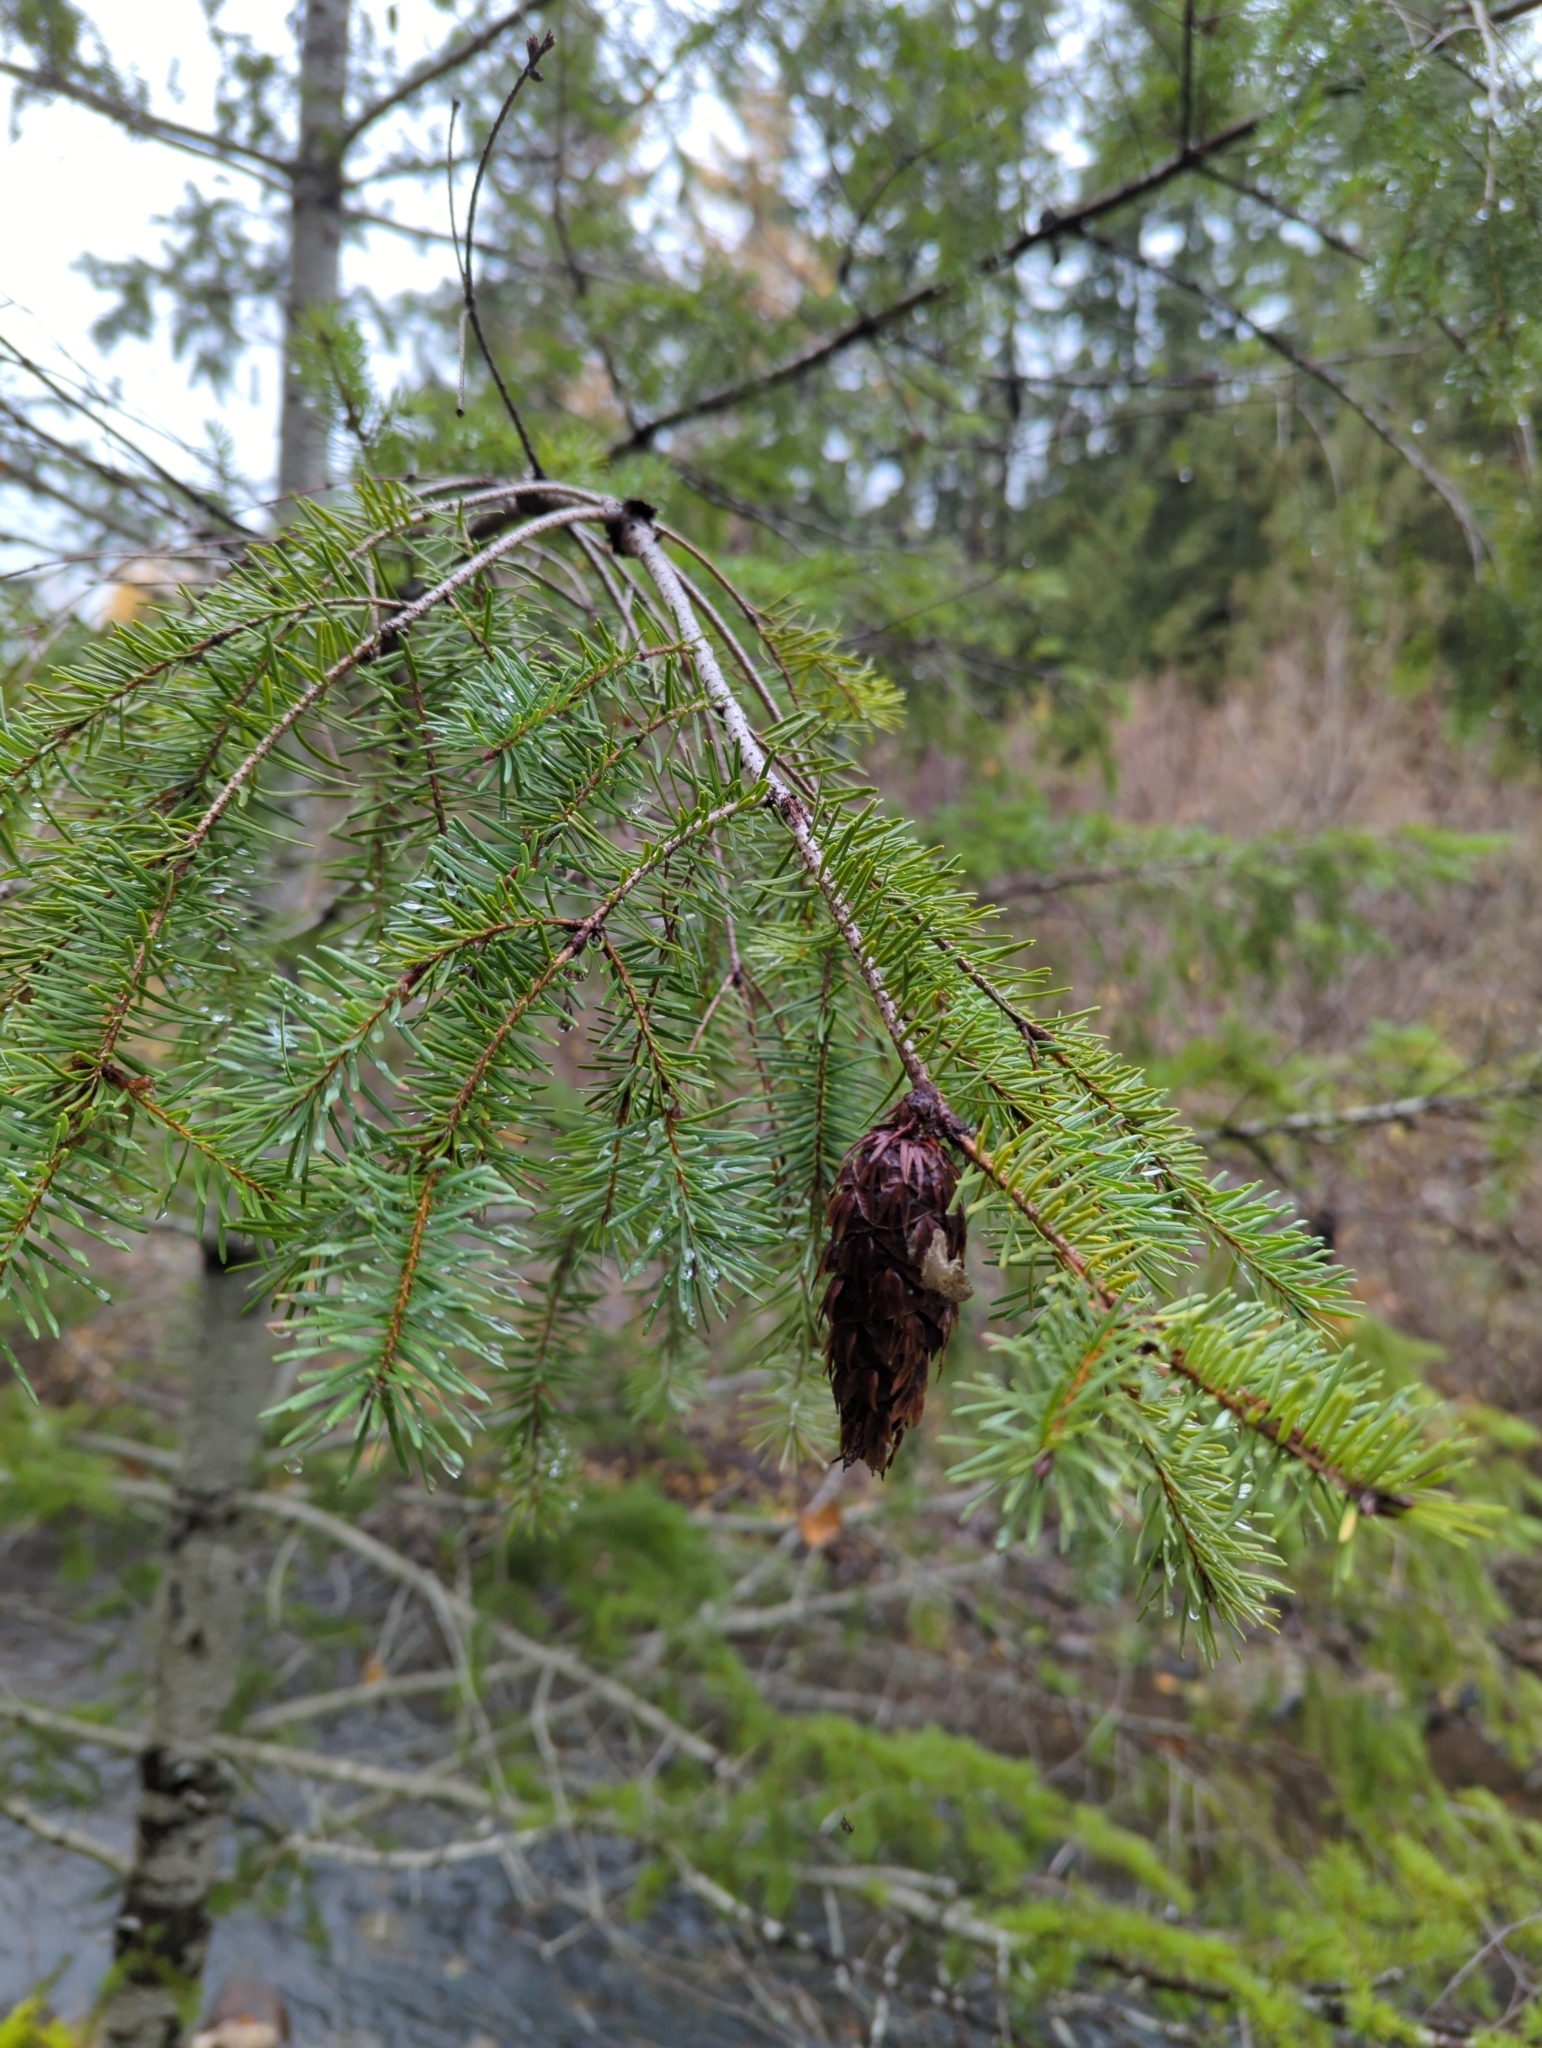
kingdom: Plantae
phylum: Tracheophyta
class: Pinopsida
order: Pinales
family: Pinaceae
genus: Pseudotsuga
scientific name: Pseudotsuga menziesii
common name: Douglas fir
